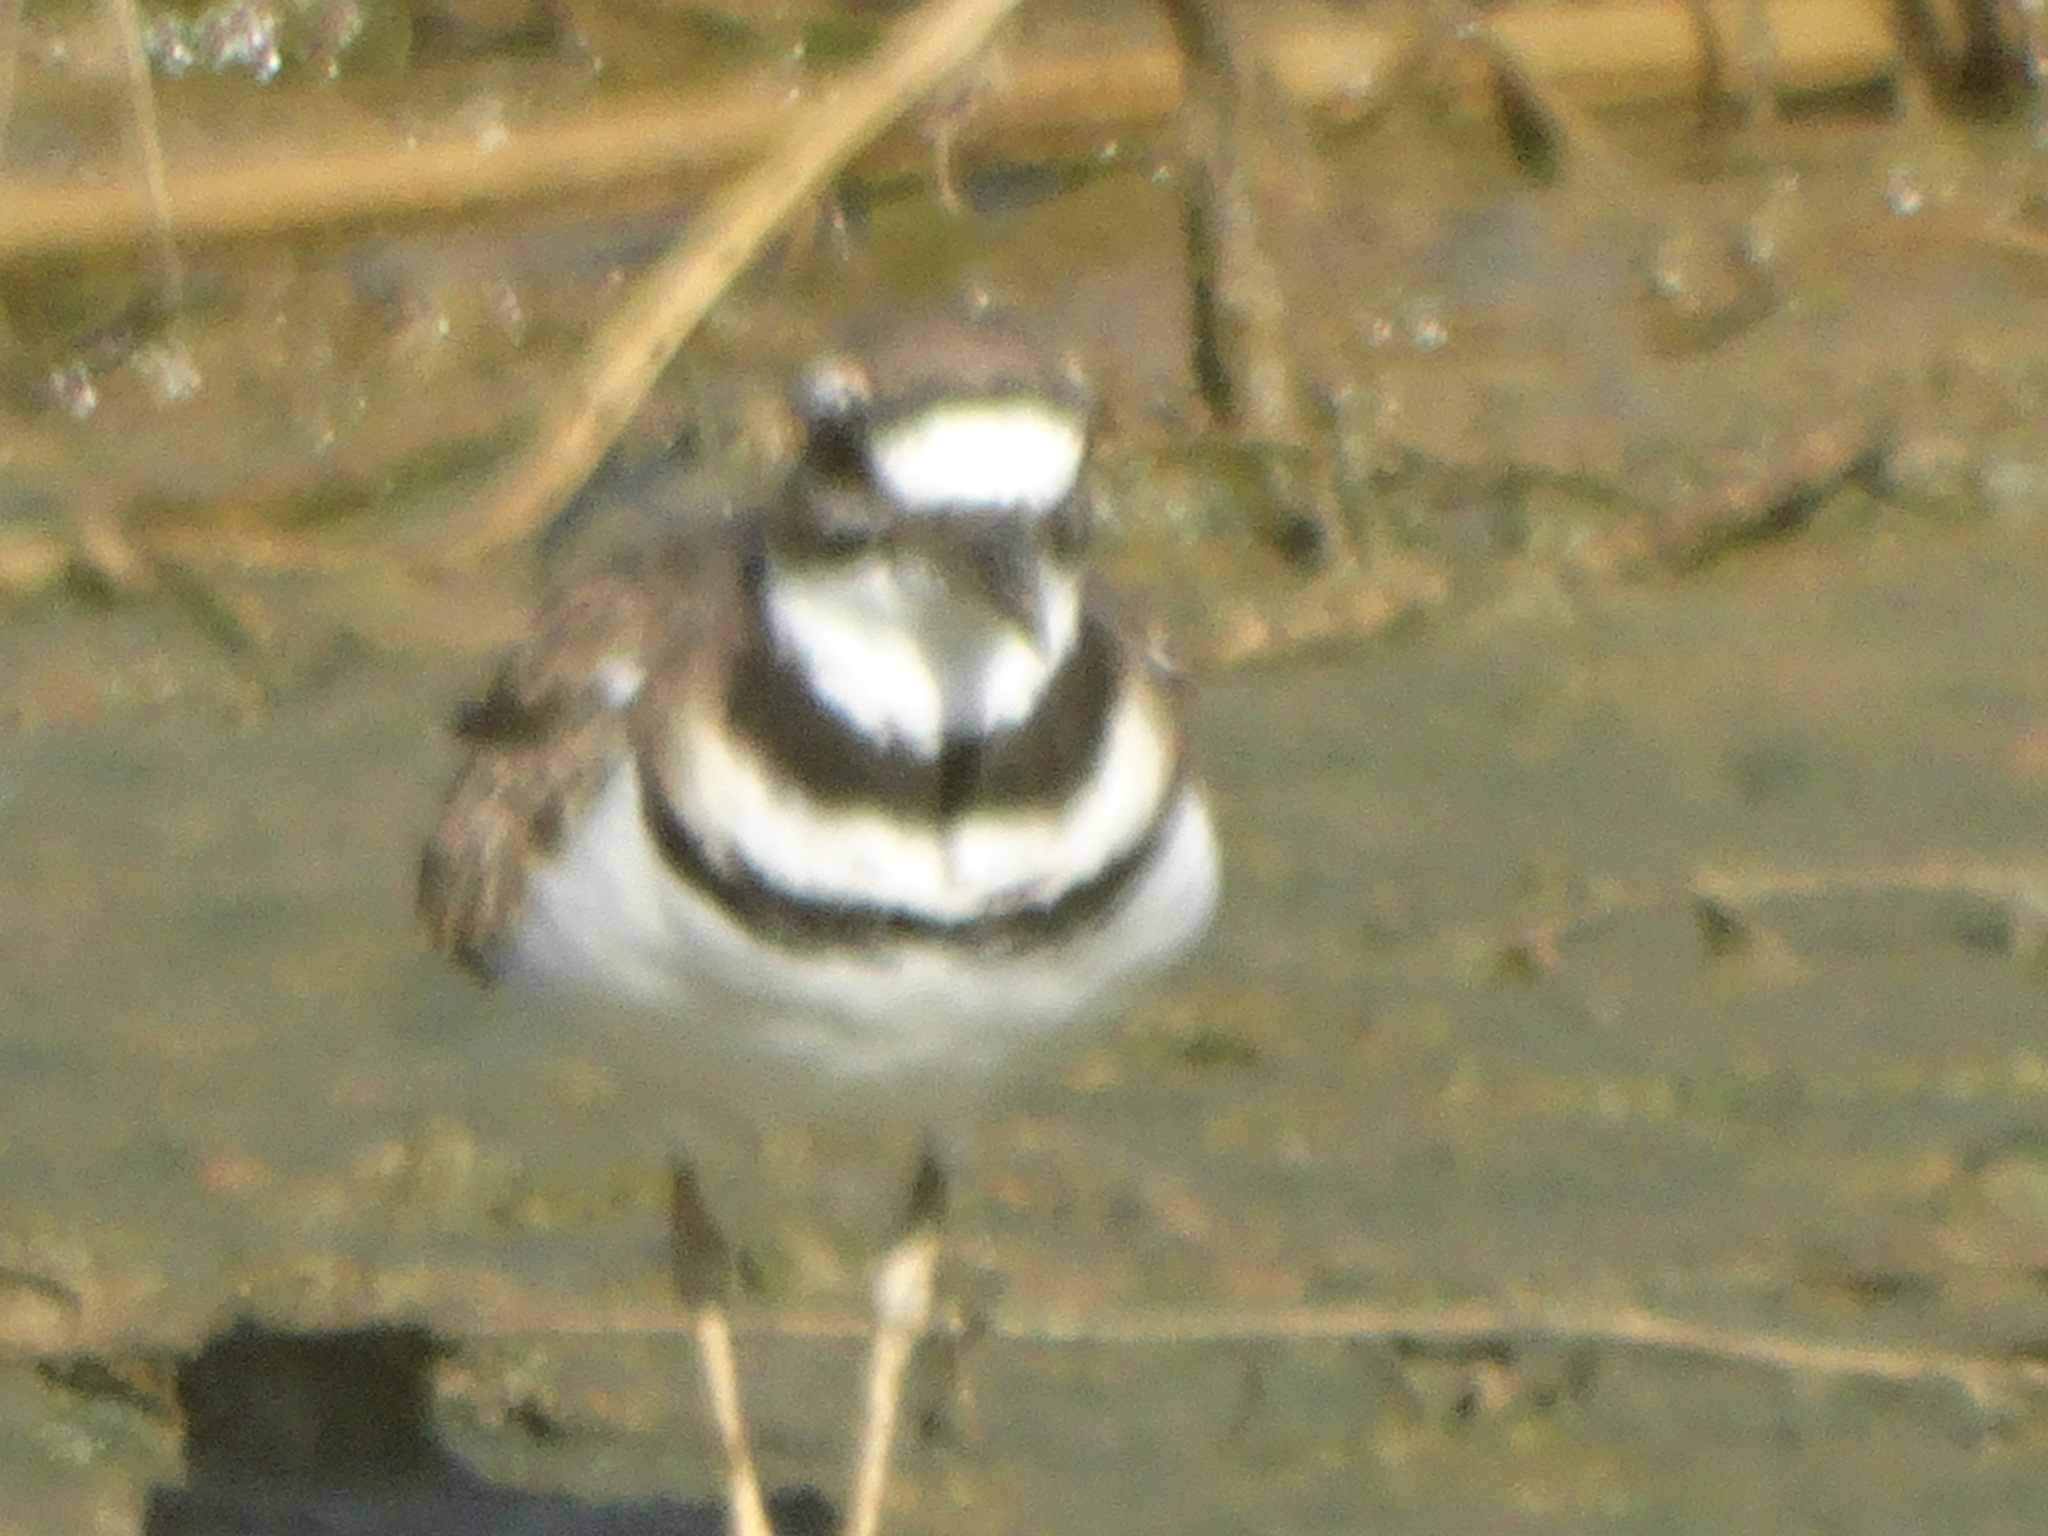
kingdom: Animalia
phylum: Chordata
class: Aves
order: Charadriiformes
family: Charadriidae
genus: Charadrius
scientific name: Charadrius vociferus
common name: Killdeer
